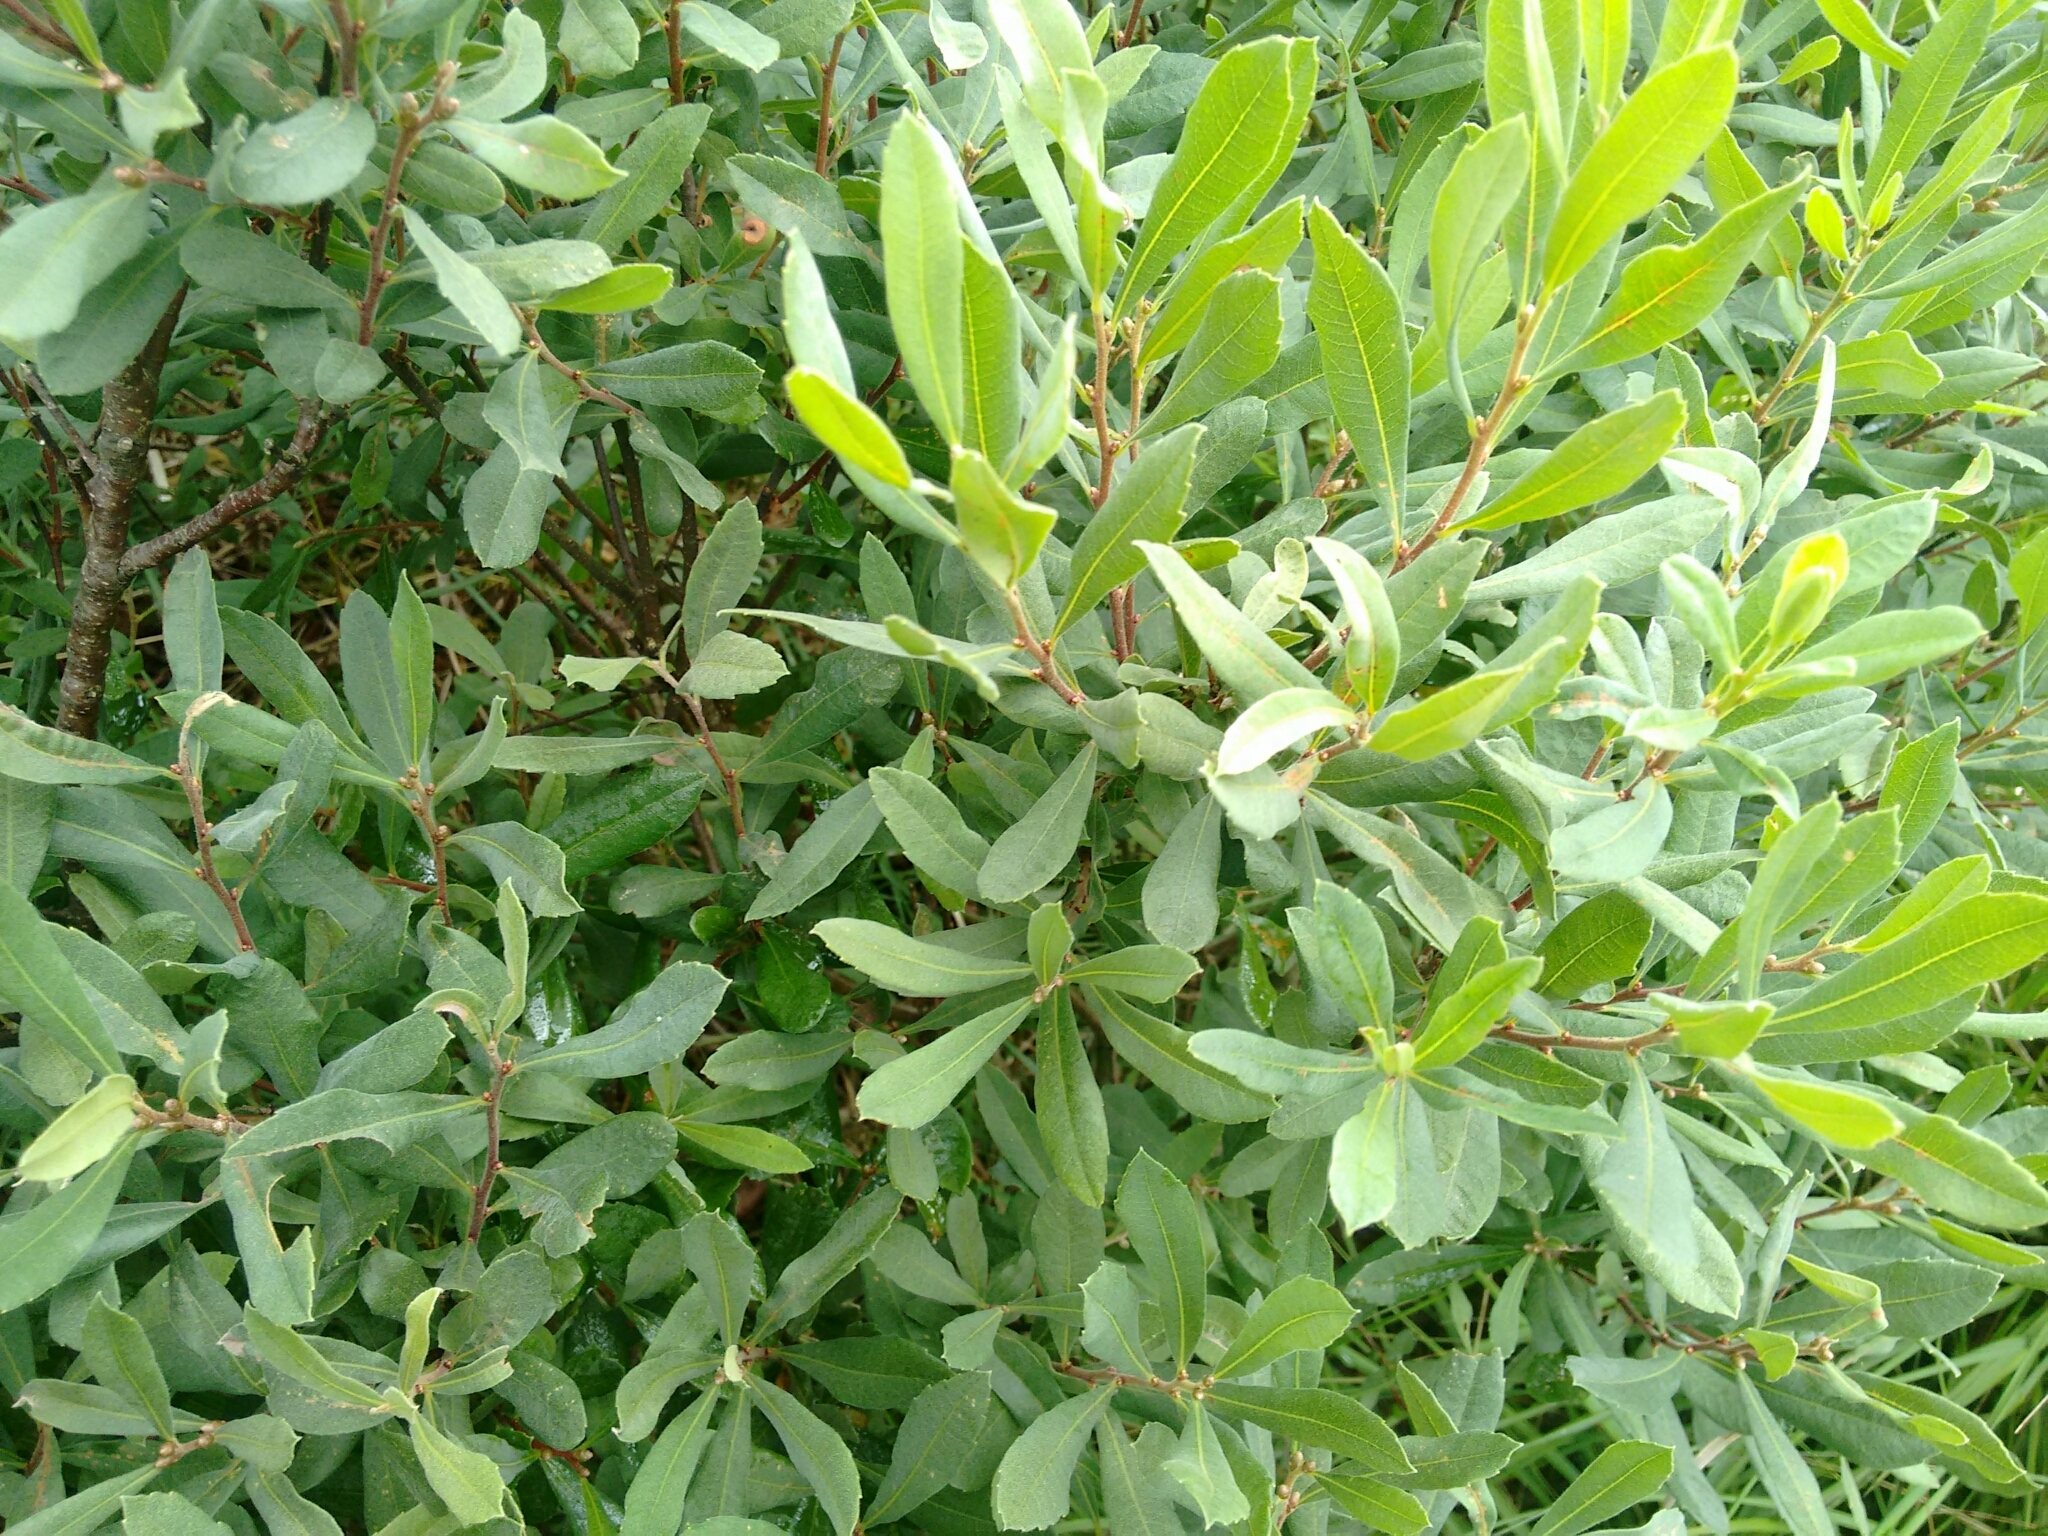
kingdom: Plantae
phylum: Tracheophyta
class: Magnoliopsida
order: Fagales
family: Myricaceae
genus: Myrica
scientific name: Myrica gale
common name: Sweet gale
